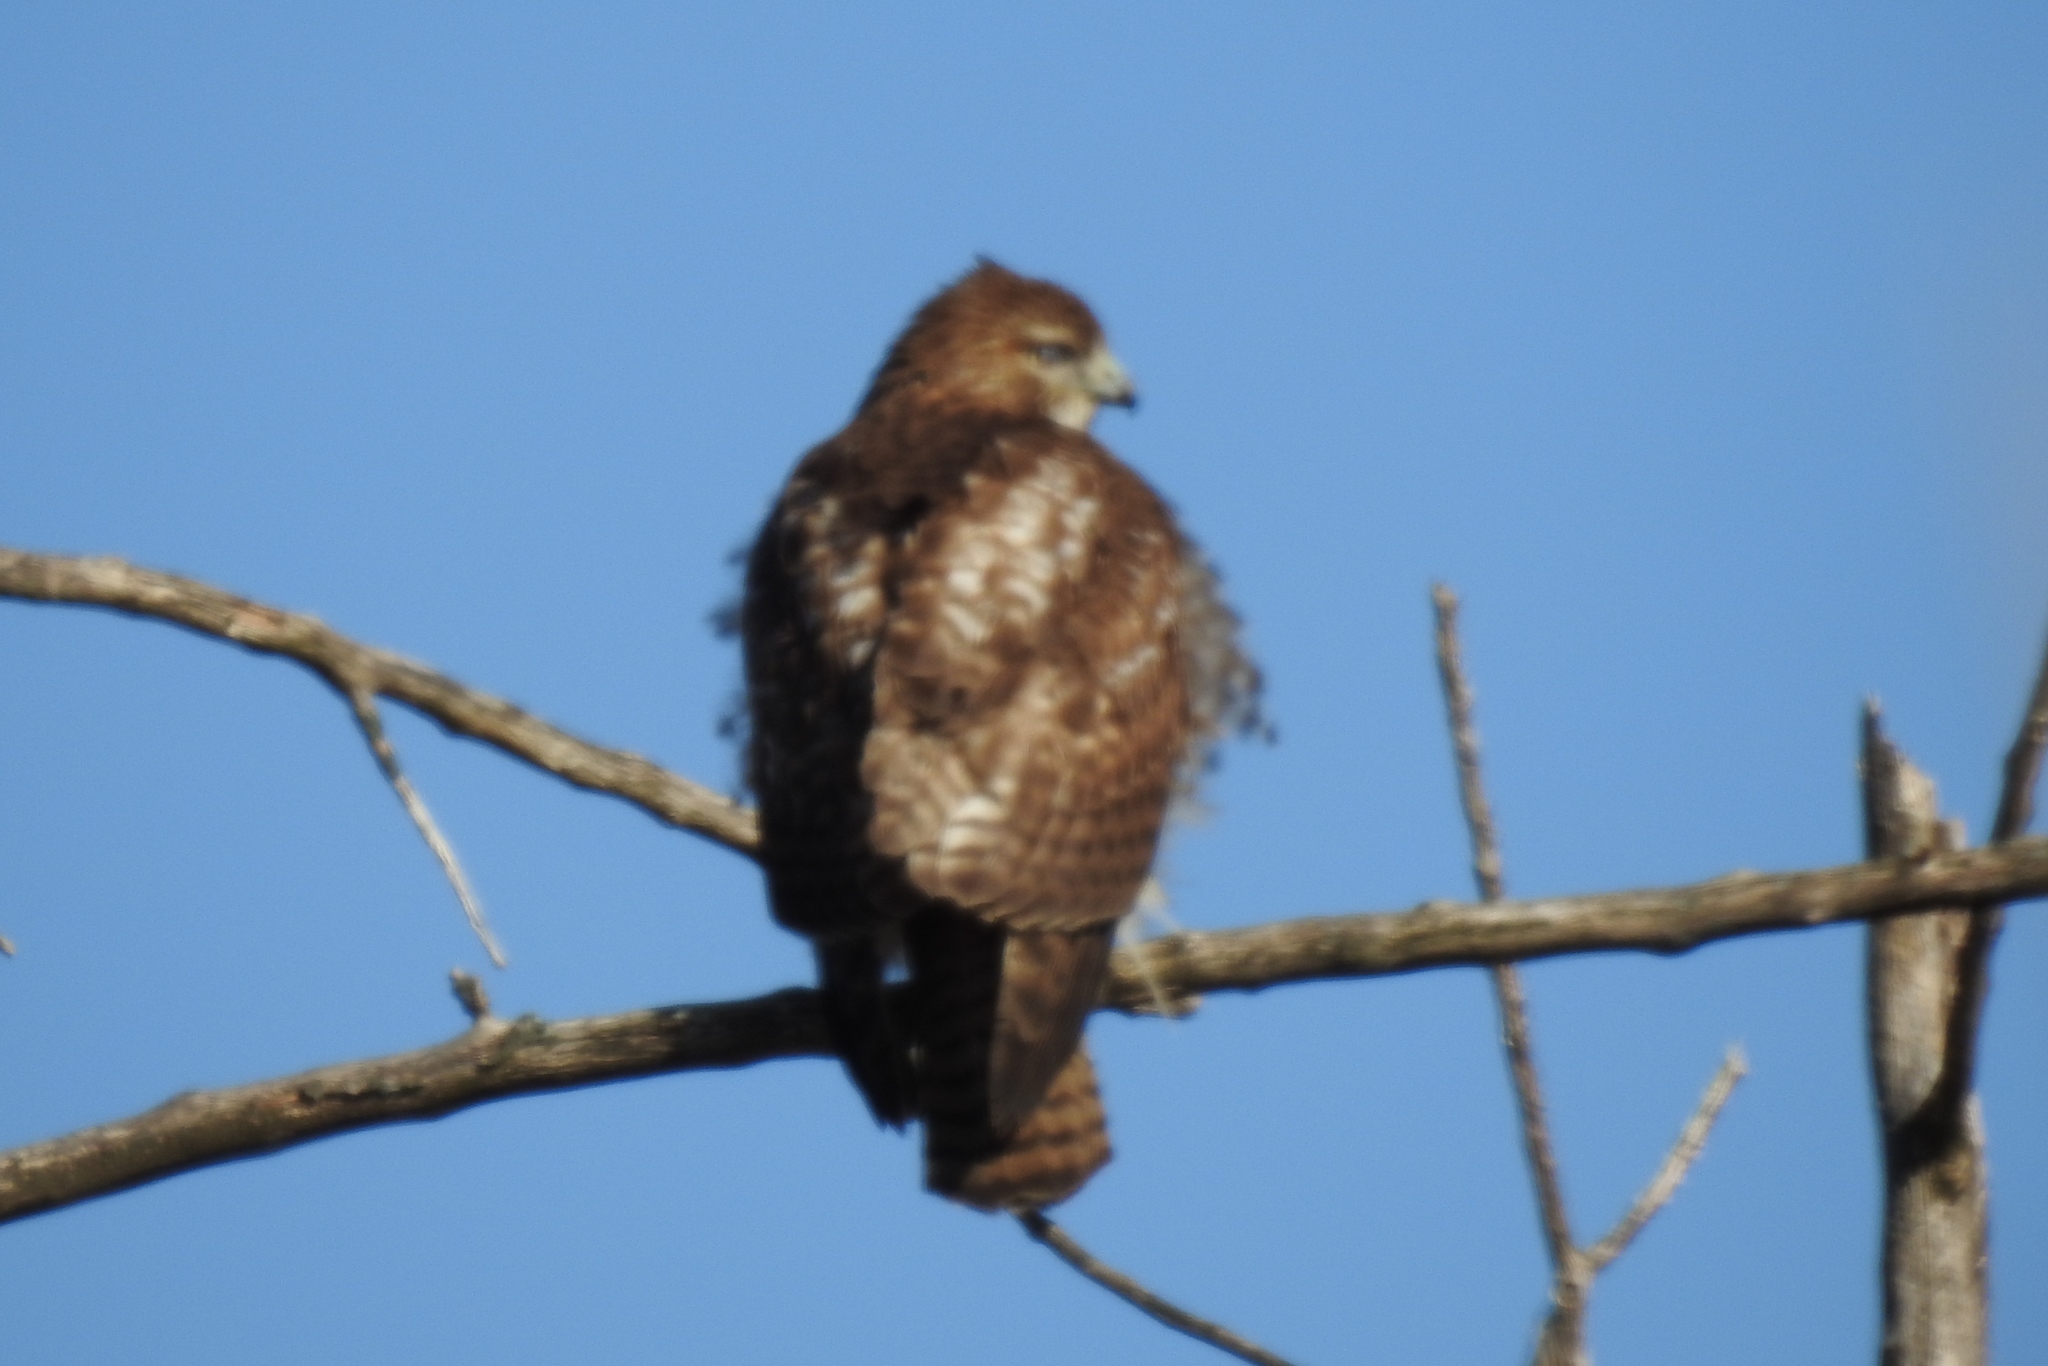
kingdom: Animalia
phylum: Chordata
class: Aves
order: Accipitriformes
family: Accipitridae
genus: Buteo
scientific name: Buteo jamaicensis
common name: Red-tailed hawk
